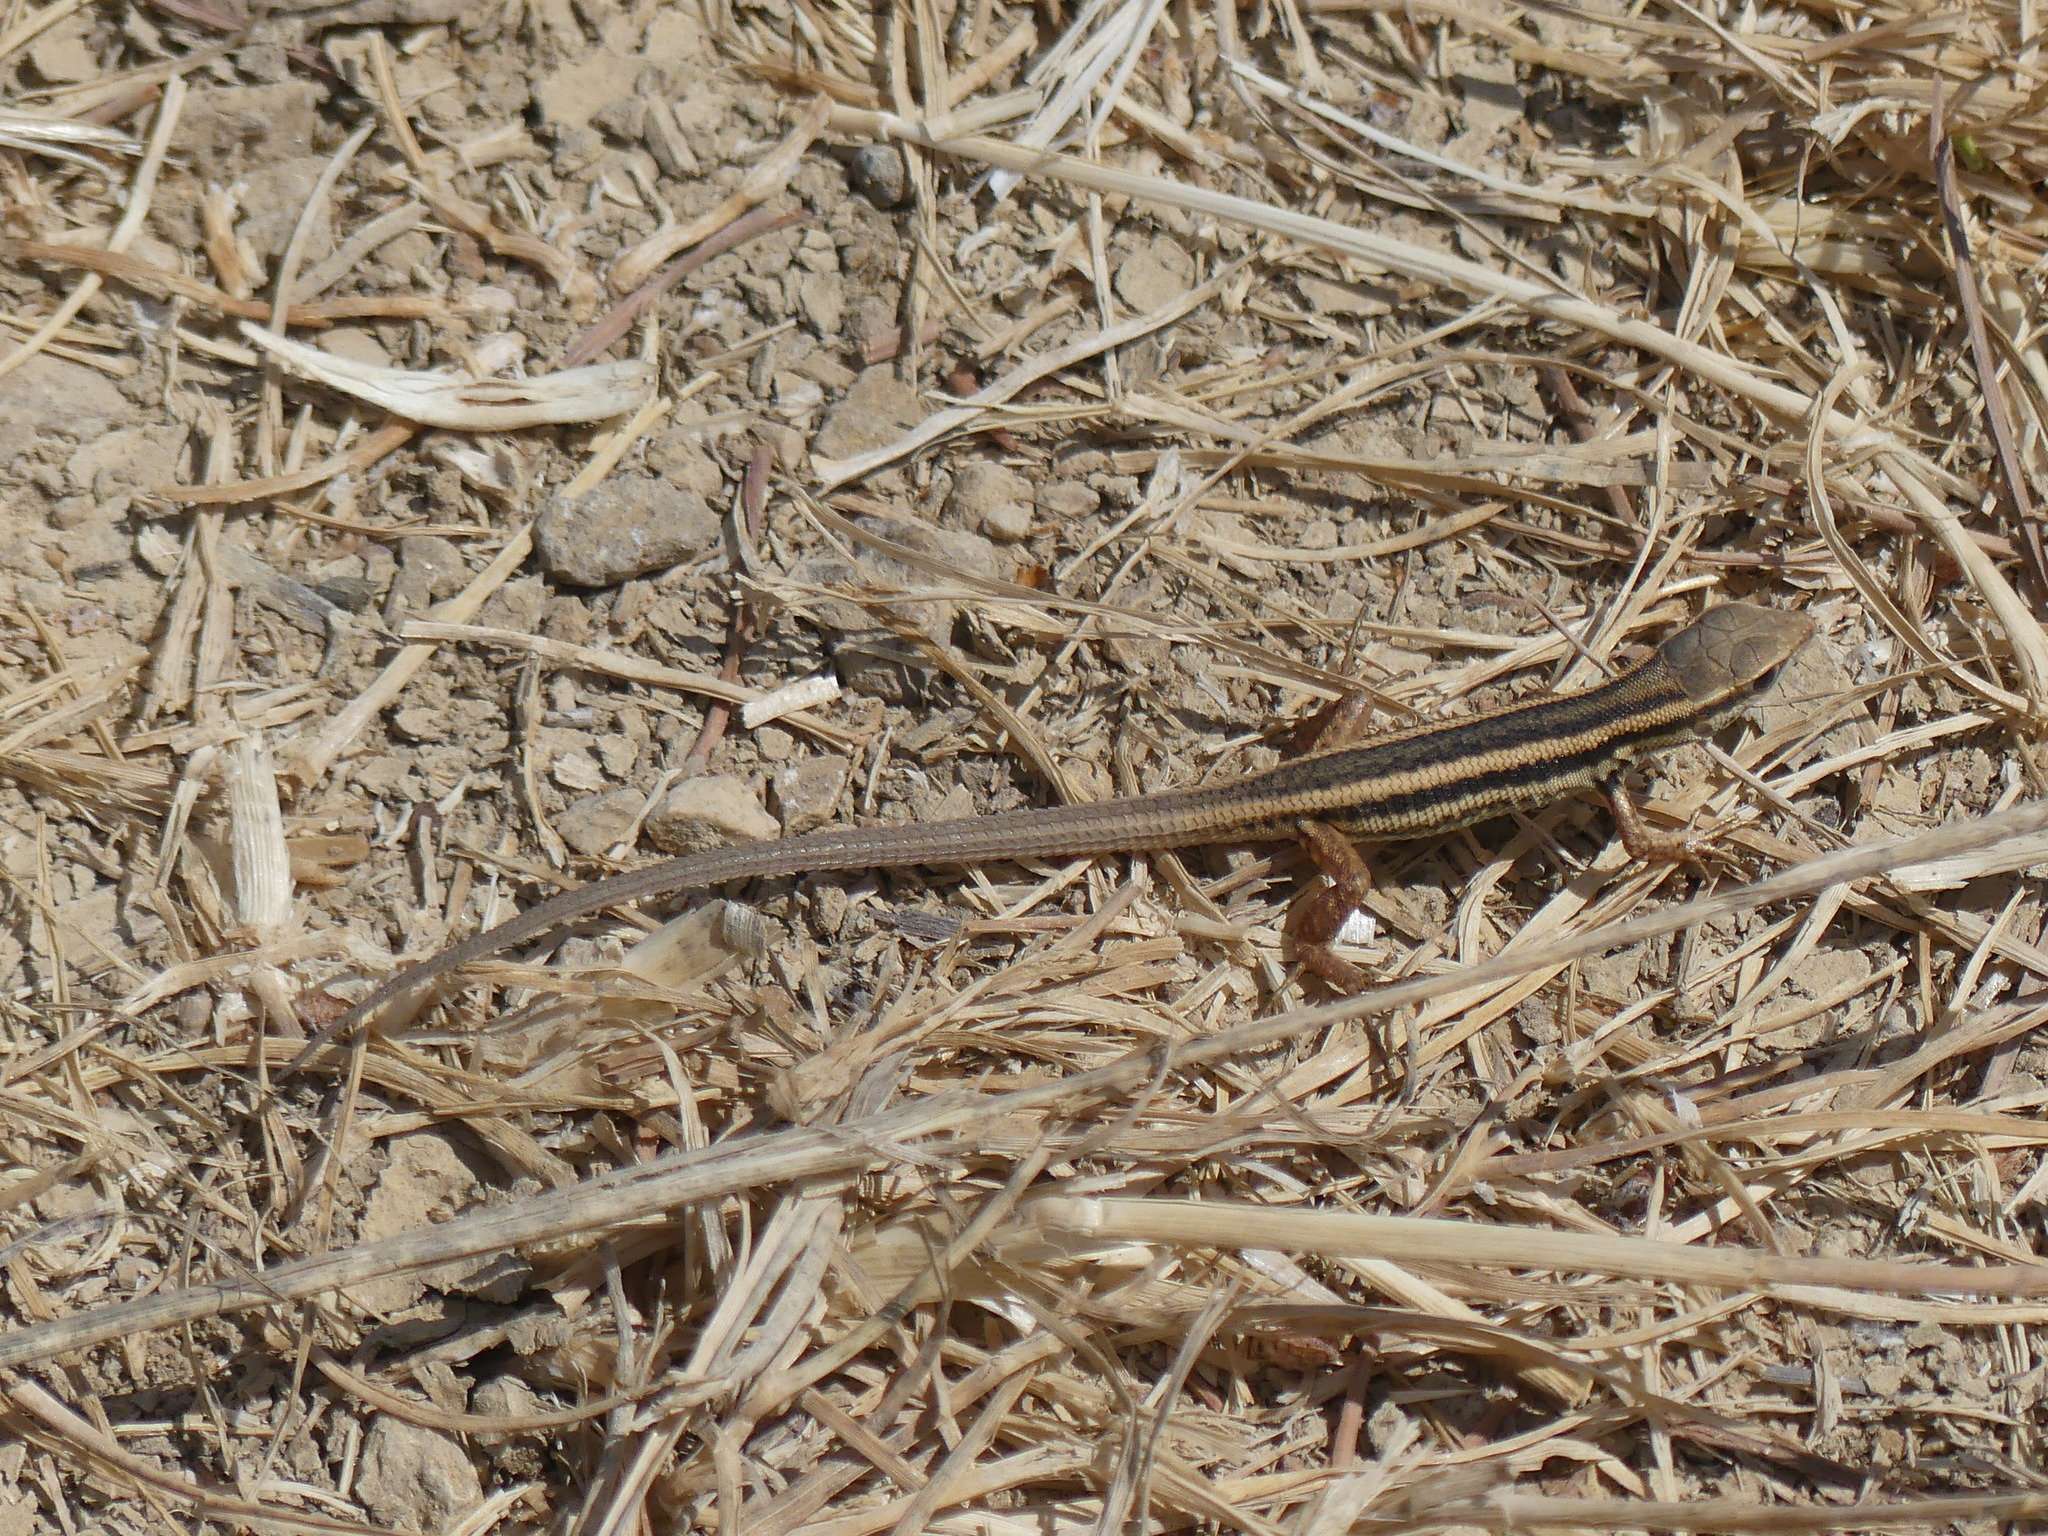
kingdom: Animalia
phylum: Chordata
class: Squamata
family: Lacertidae
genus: Ophisops
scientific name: Ophisops elegans
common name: Snake-eyed lizard
